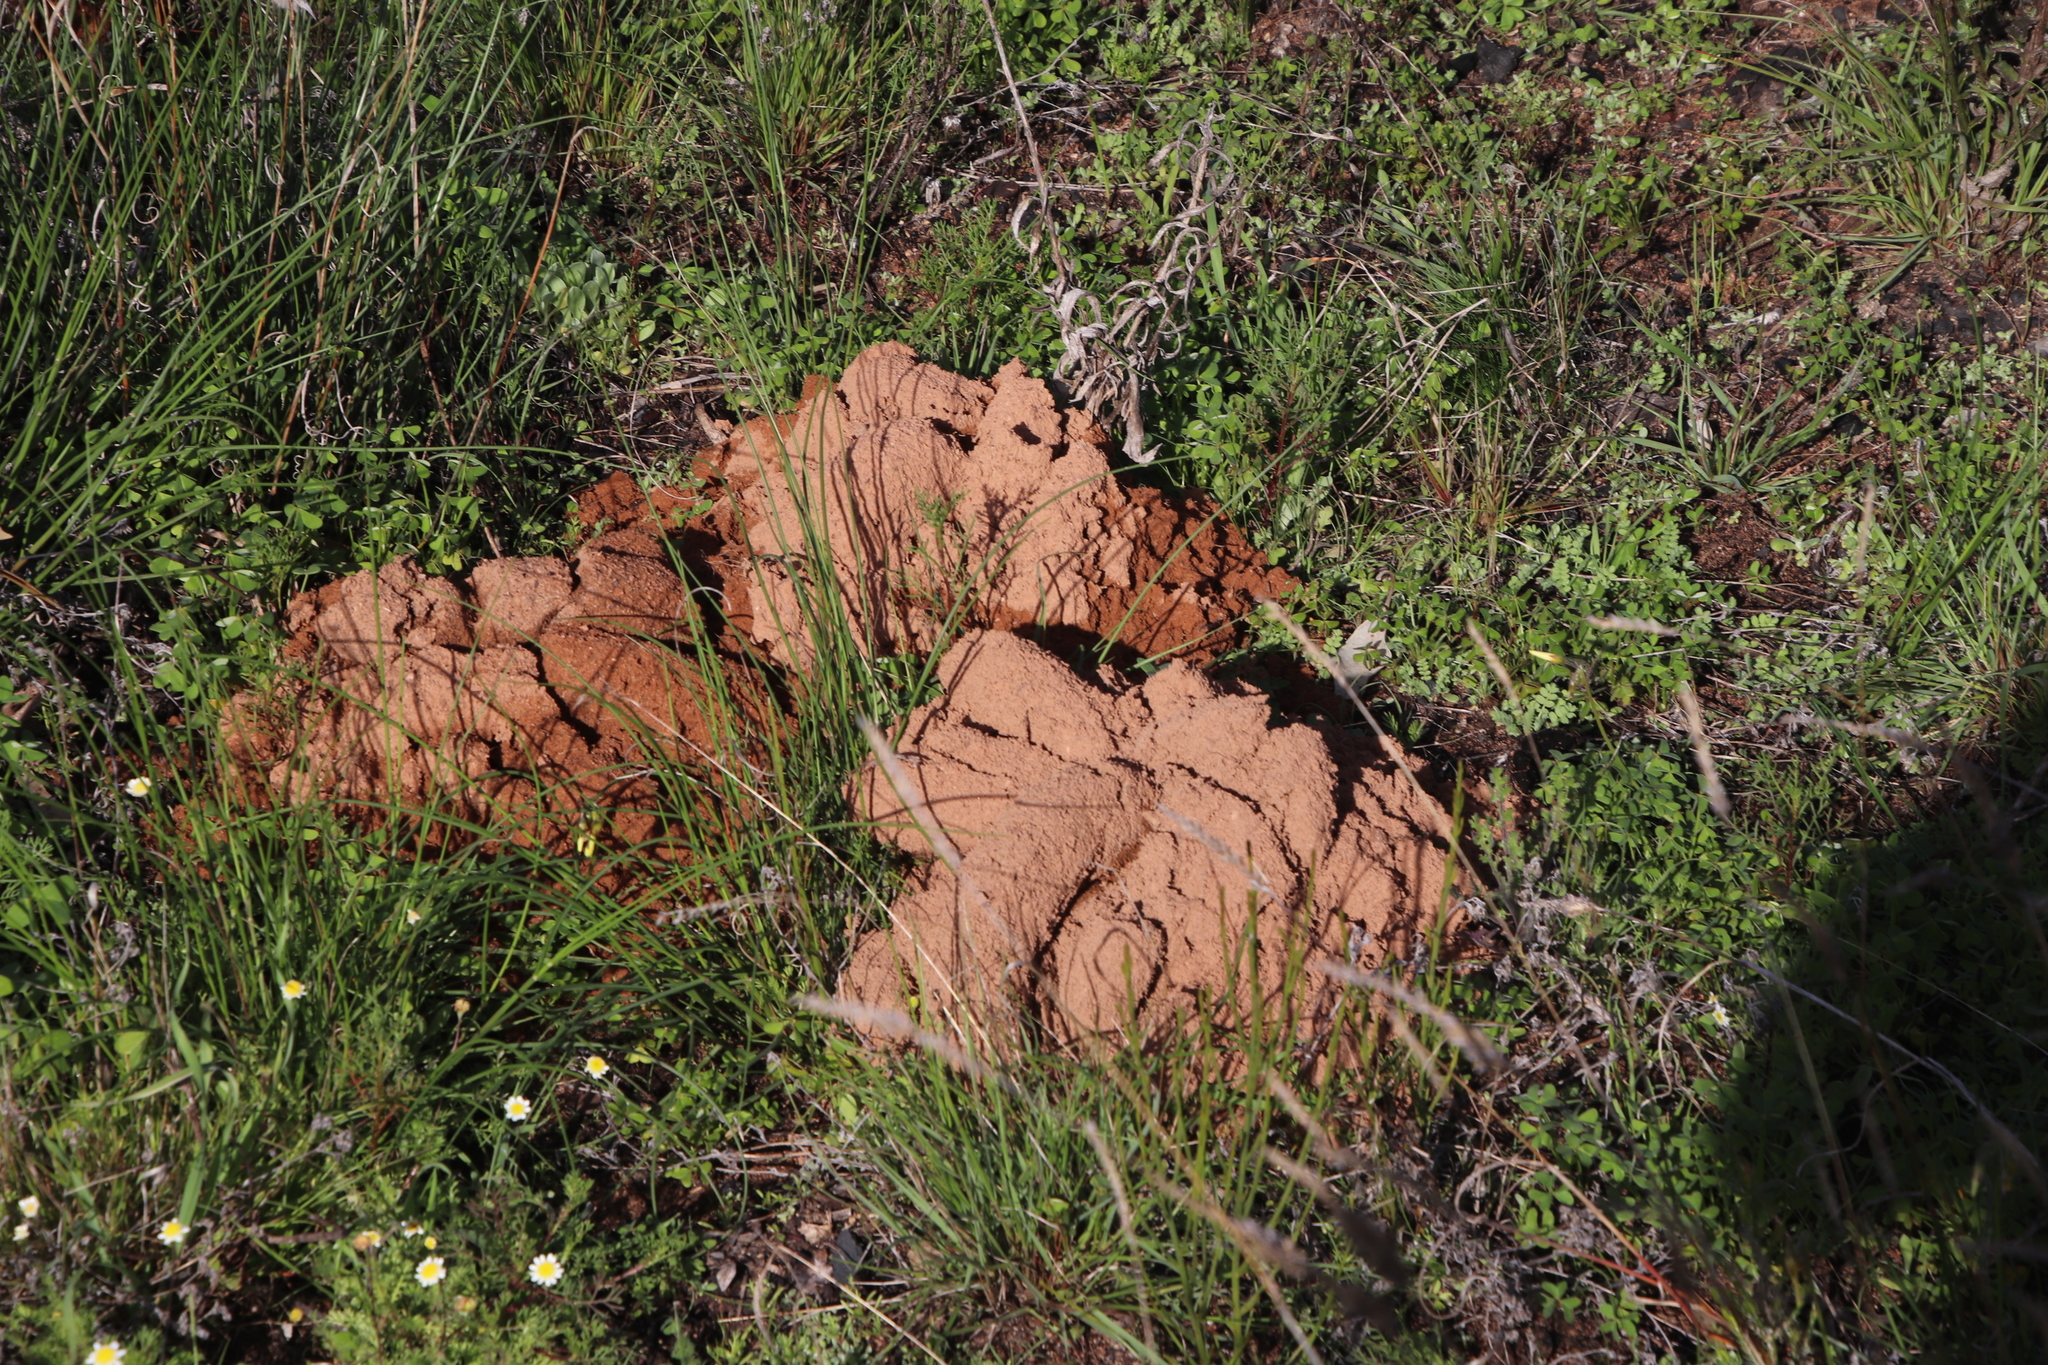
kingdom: Animalia
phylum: Chordata
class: Mammalia
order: Rodentia
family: Bathyergidae
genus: Bathyergus
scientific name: Bathyergus suillus
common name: Cape dune mole rat
